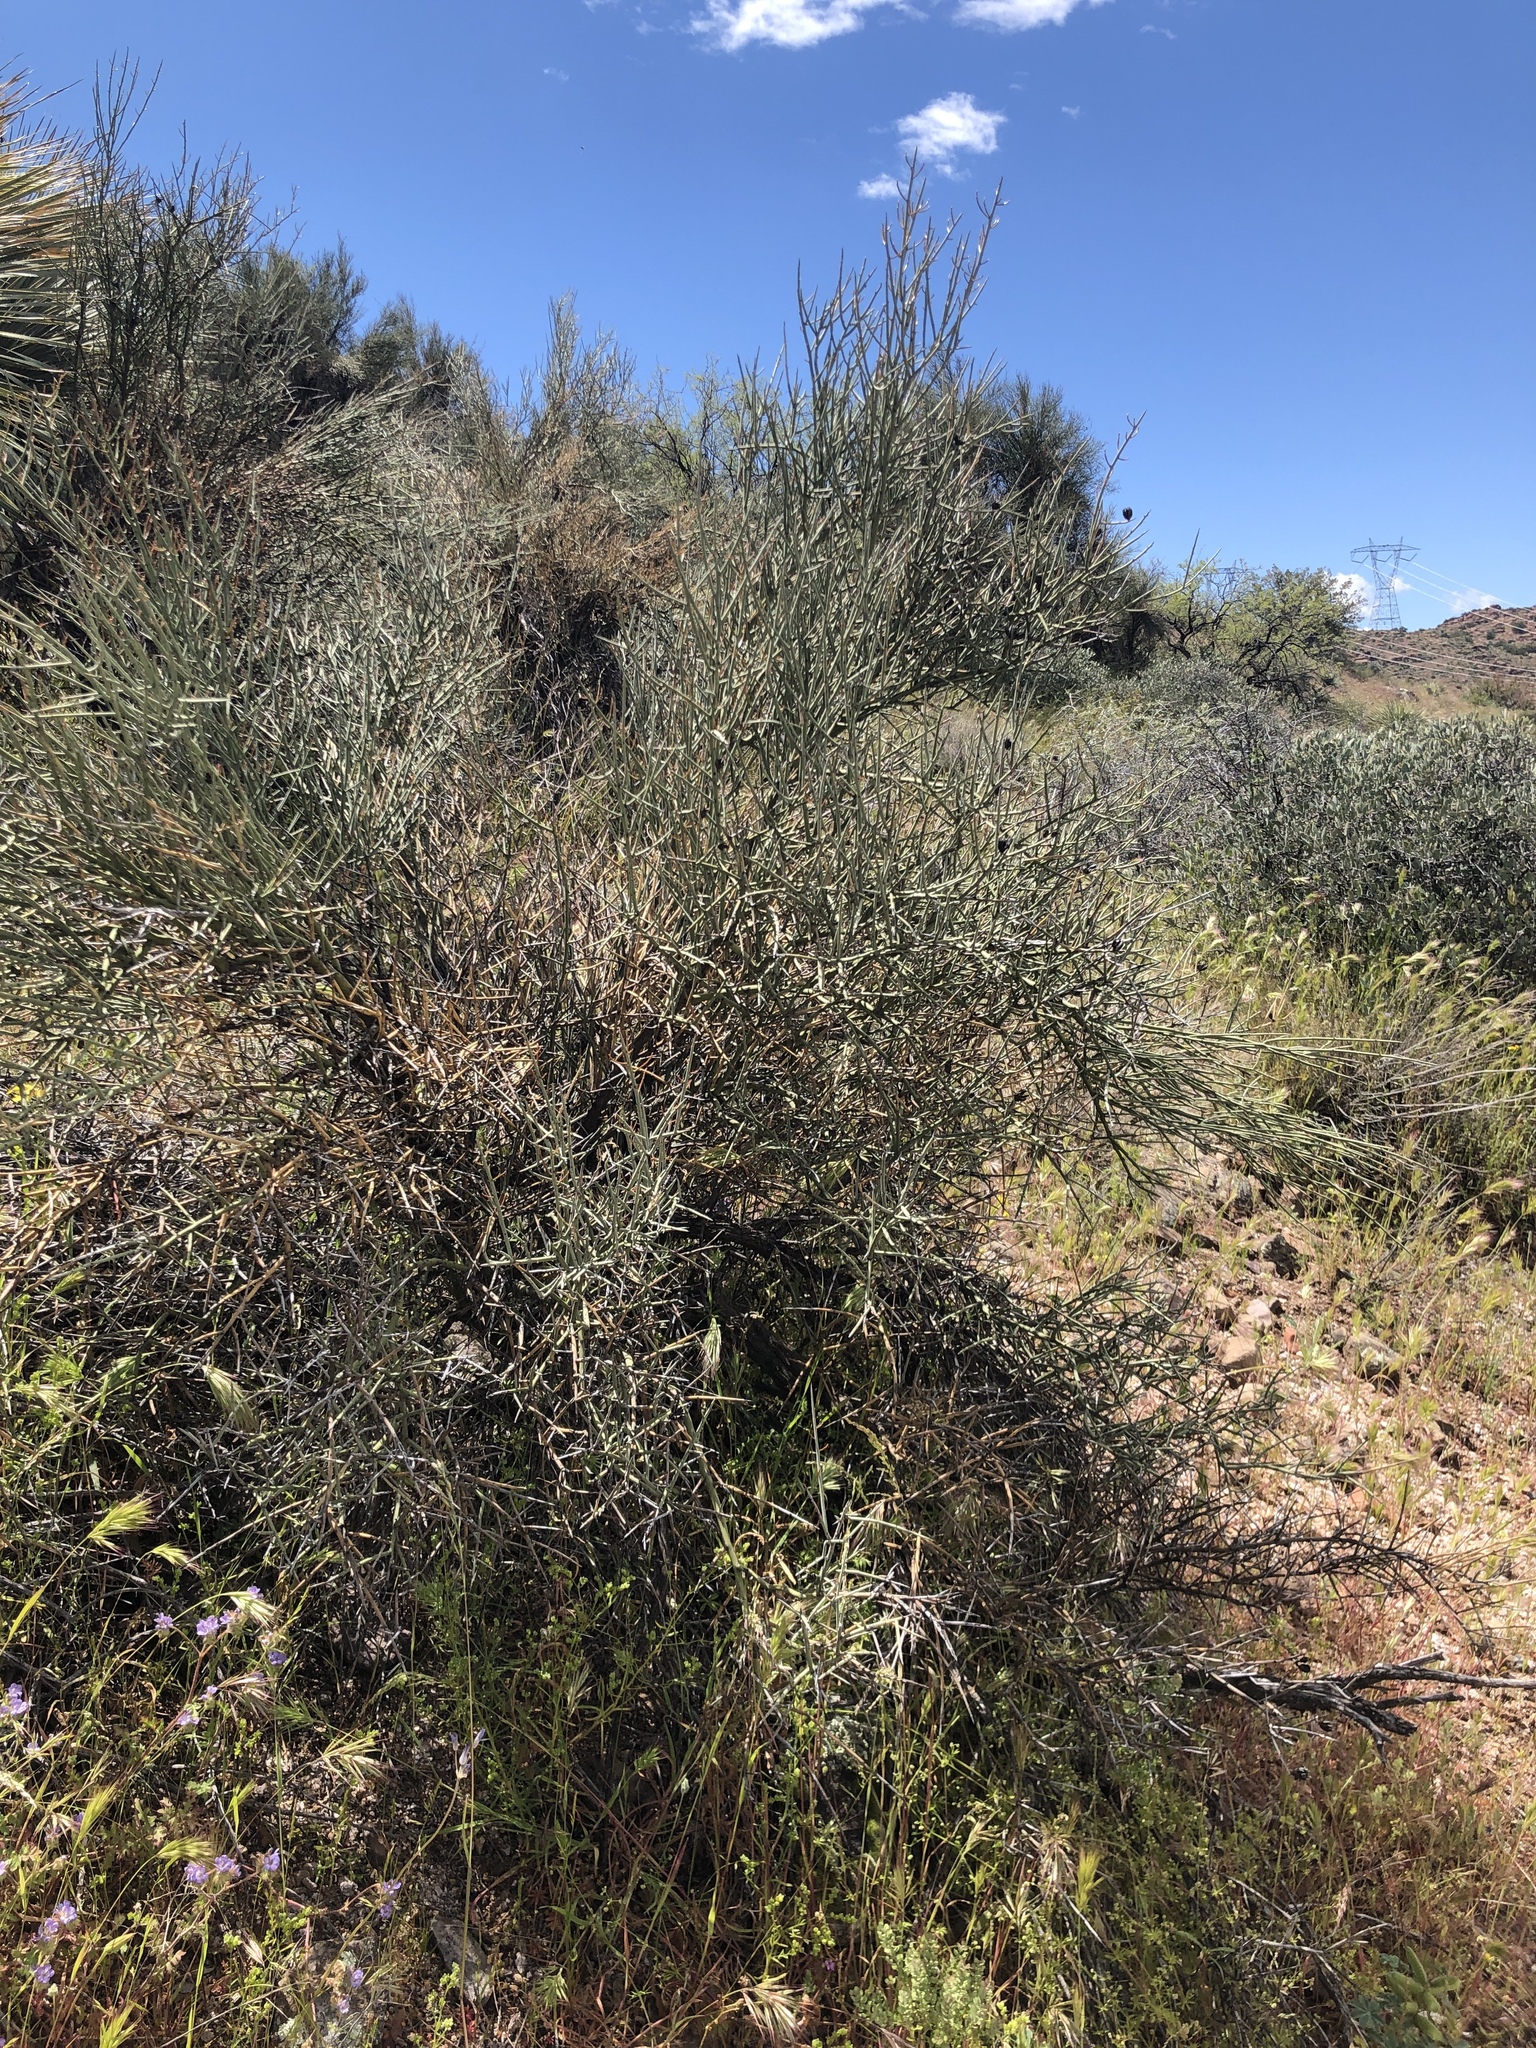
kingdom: Plantae
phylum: Tracheophyta
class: Magnoliopsida
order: Celastrales
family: Celastraceae
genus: Canotia
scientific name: Canotia holacantha
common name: Crucifixion thorns
